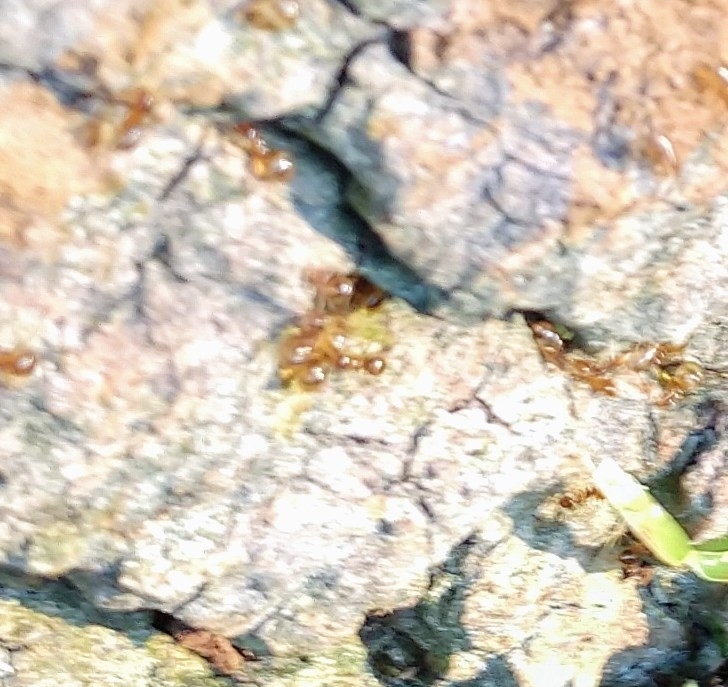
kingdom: Animalia
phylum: Arthropoda
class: Insecta
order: Hymenoptera
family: Formicidae
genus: Prenolepis
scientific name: Prenolepis imparis
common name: Small honey ant
